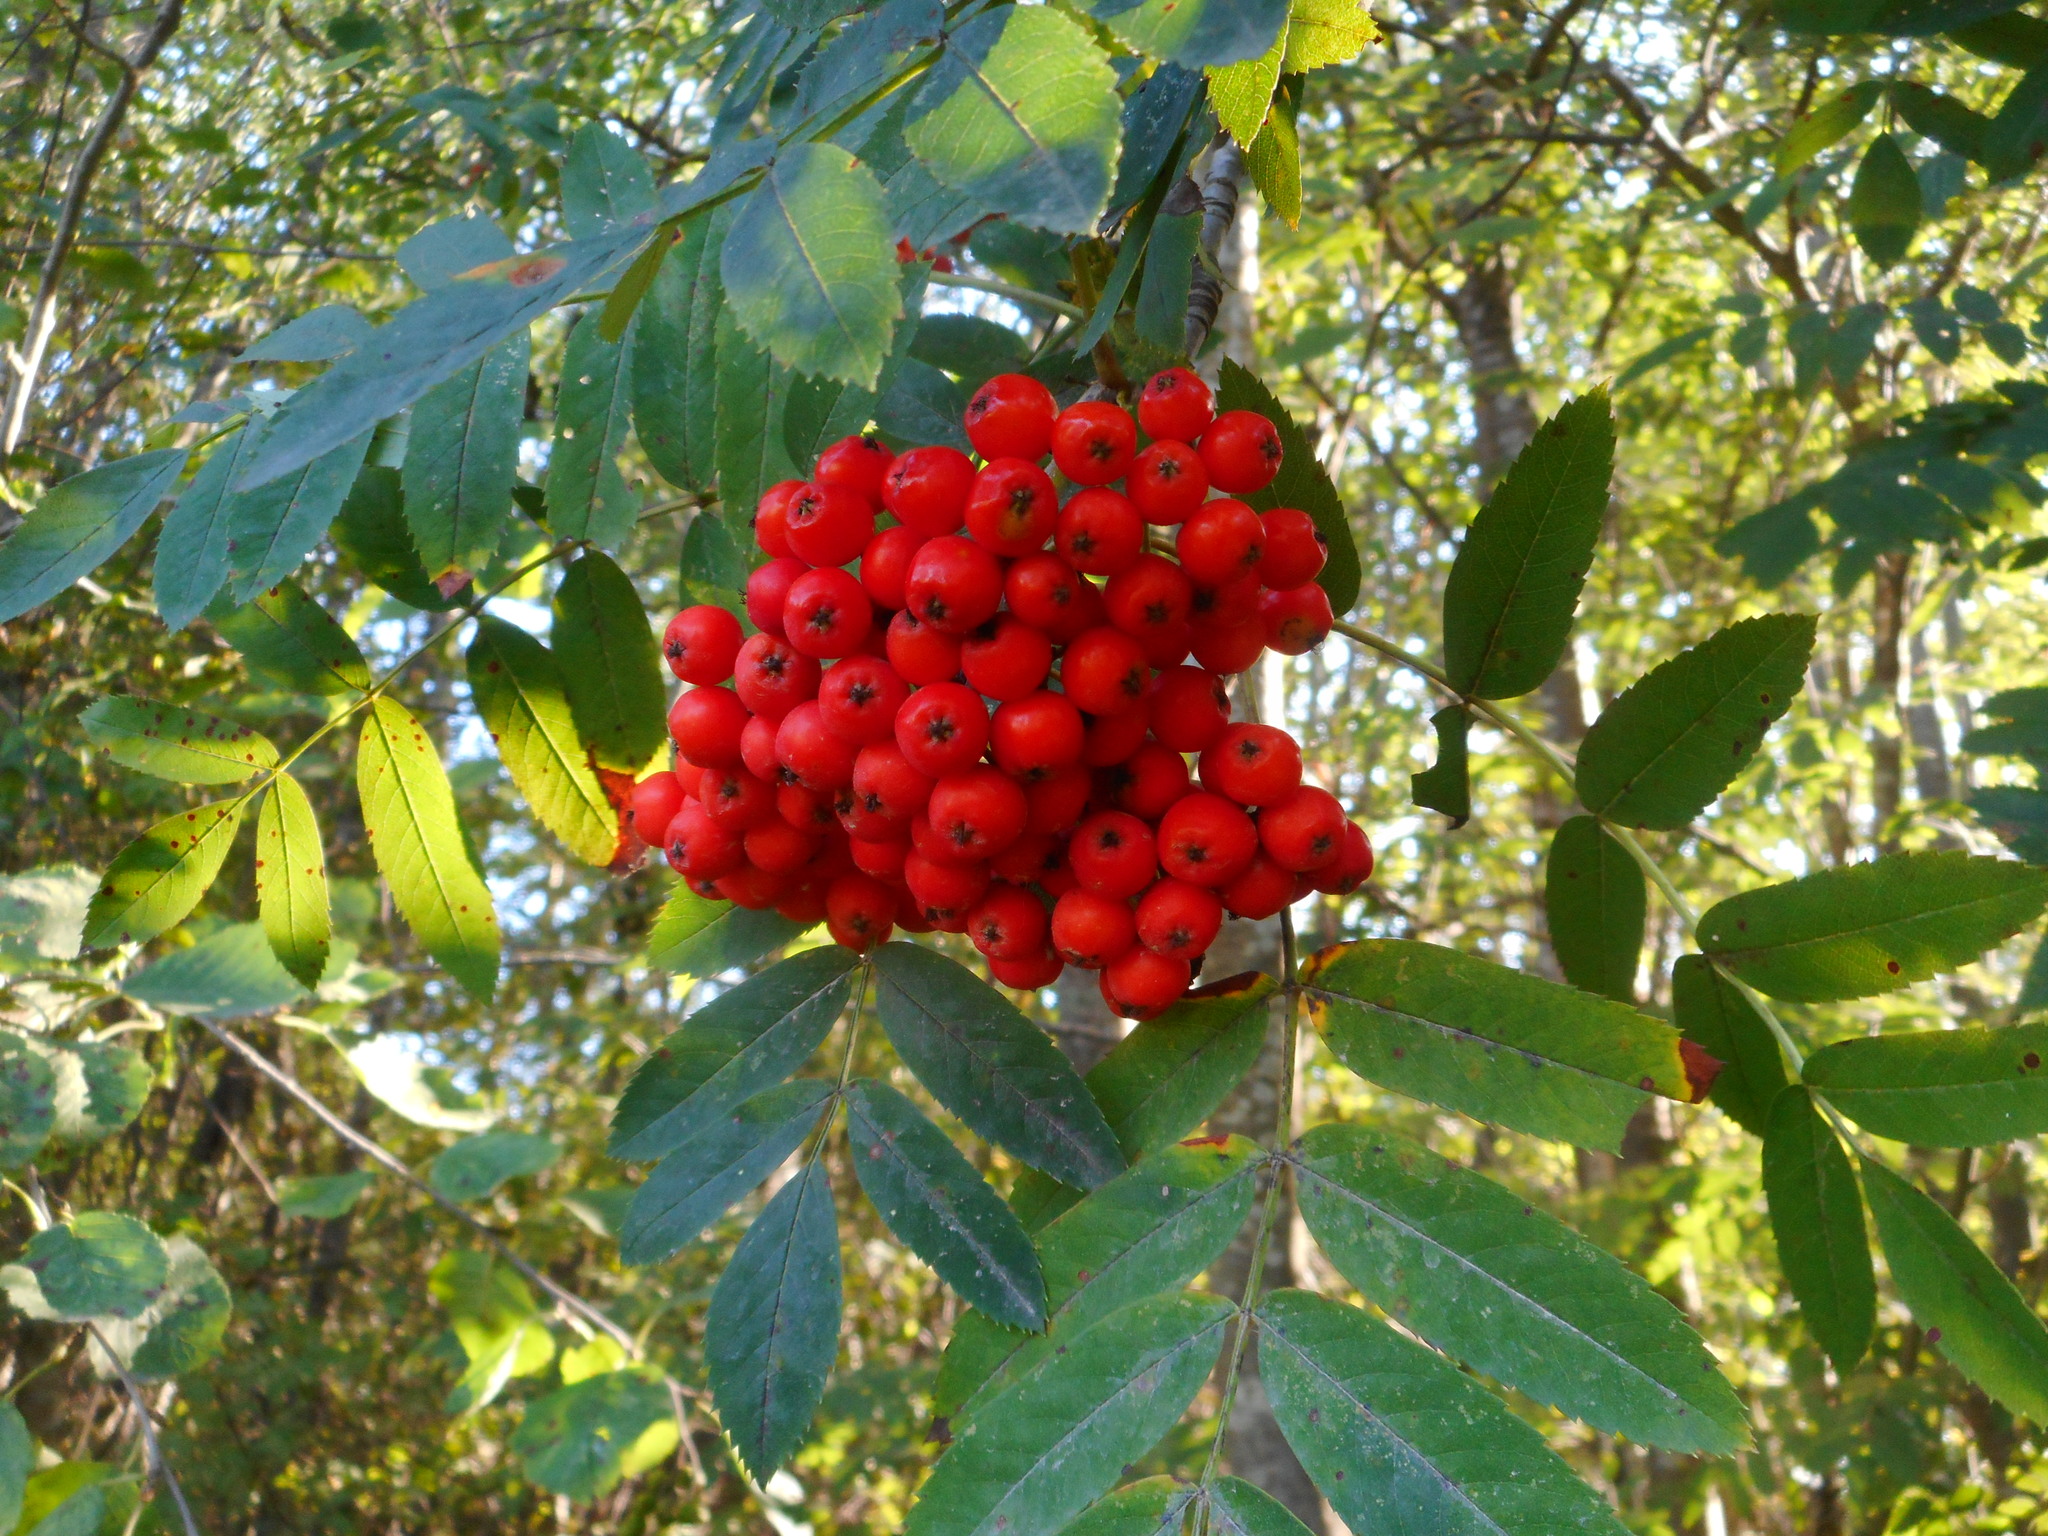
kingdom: Plantae
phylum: Tracheophyta
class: Magnoliopsida
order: Rosales
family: Rosaceae
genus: Sorbus
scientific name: Sorbus aucuparia
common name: Rowan
